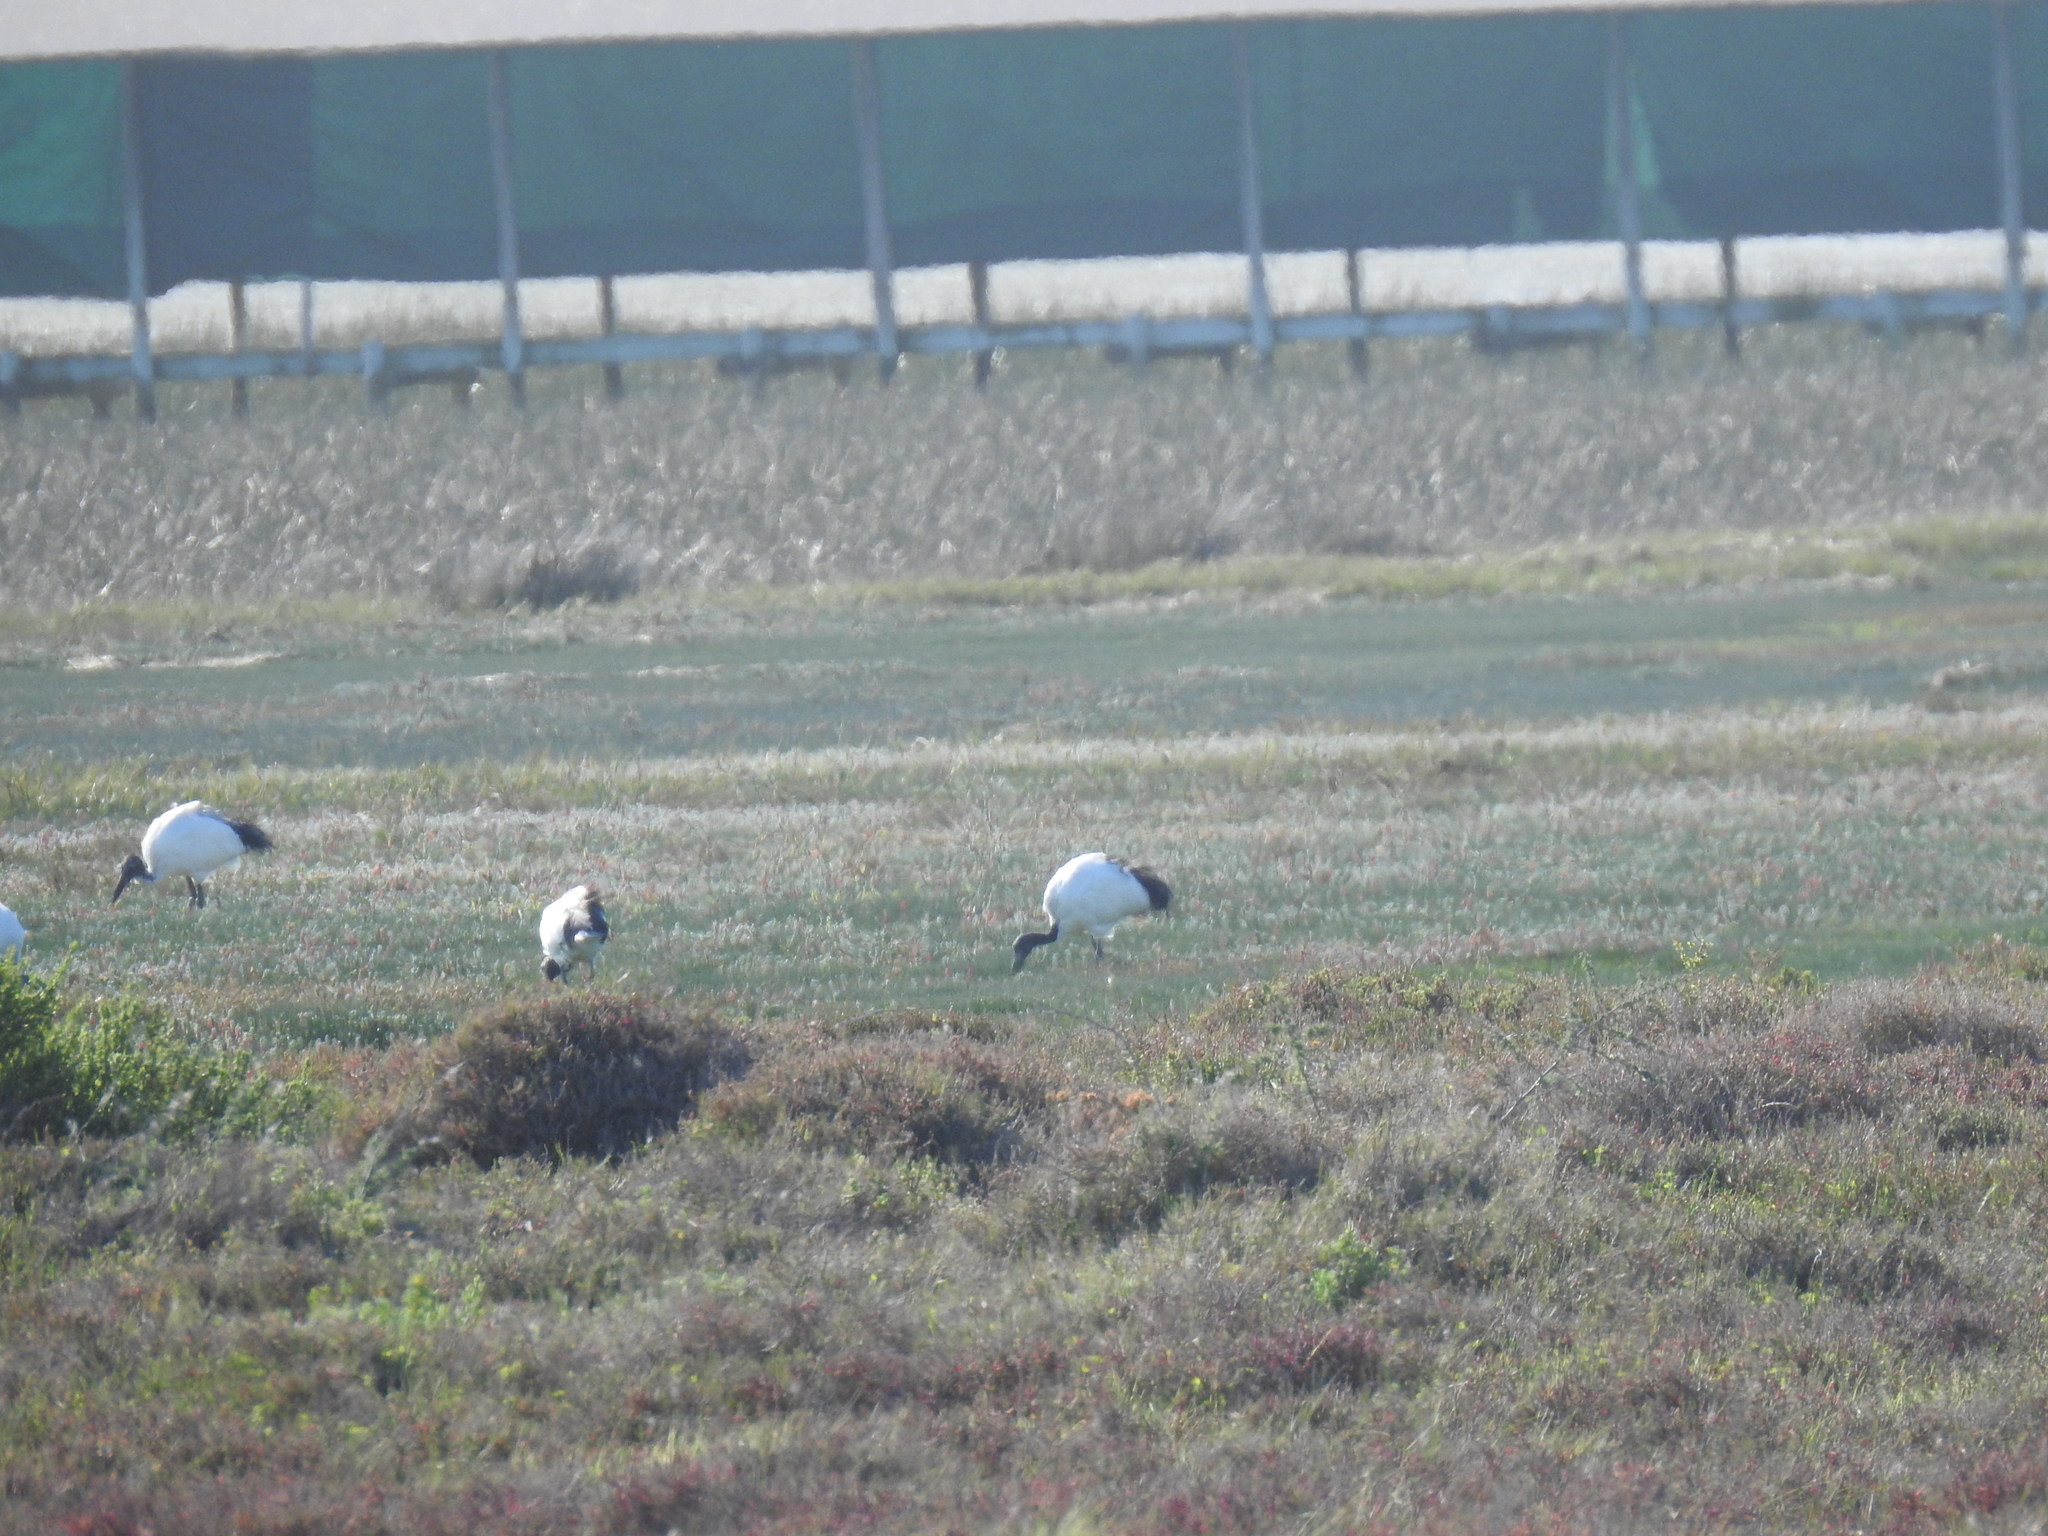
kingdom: Animalia
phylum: Chordata
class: Aves
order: Pelecaniformes
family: Threskiornithidae
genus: Threskiornis
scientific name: Threskiornis aethiopicus
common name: Sacred ibis
